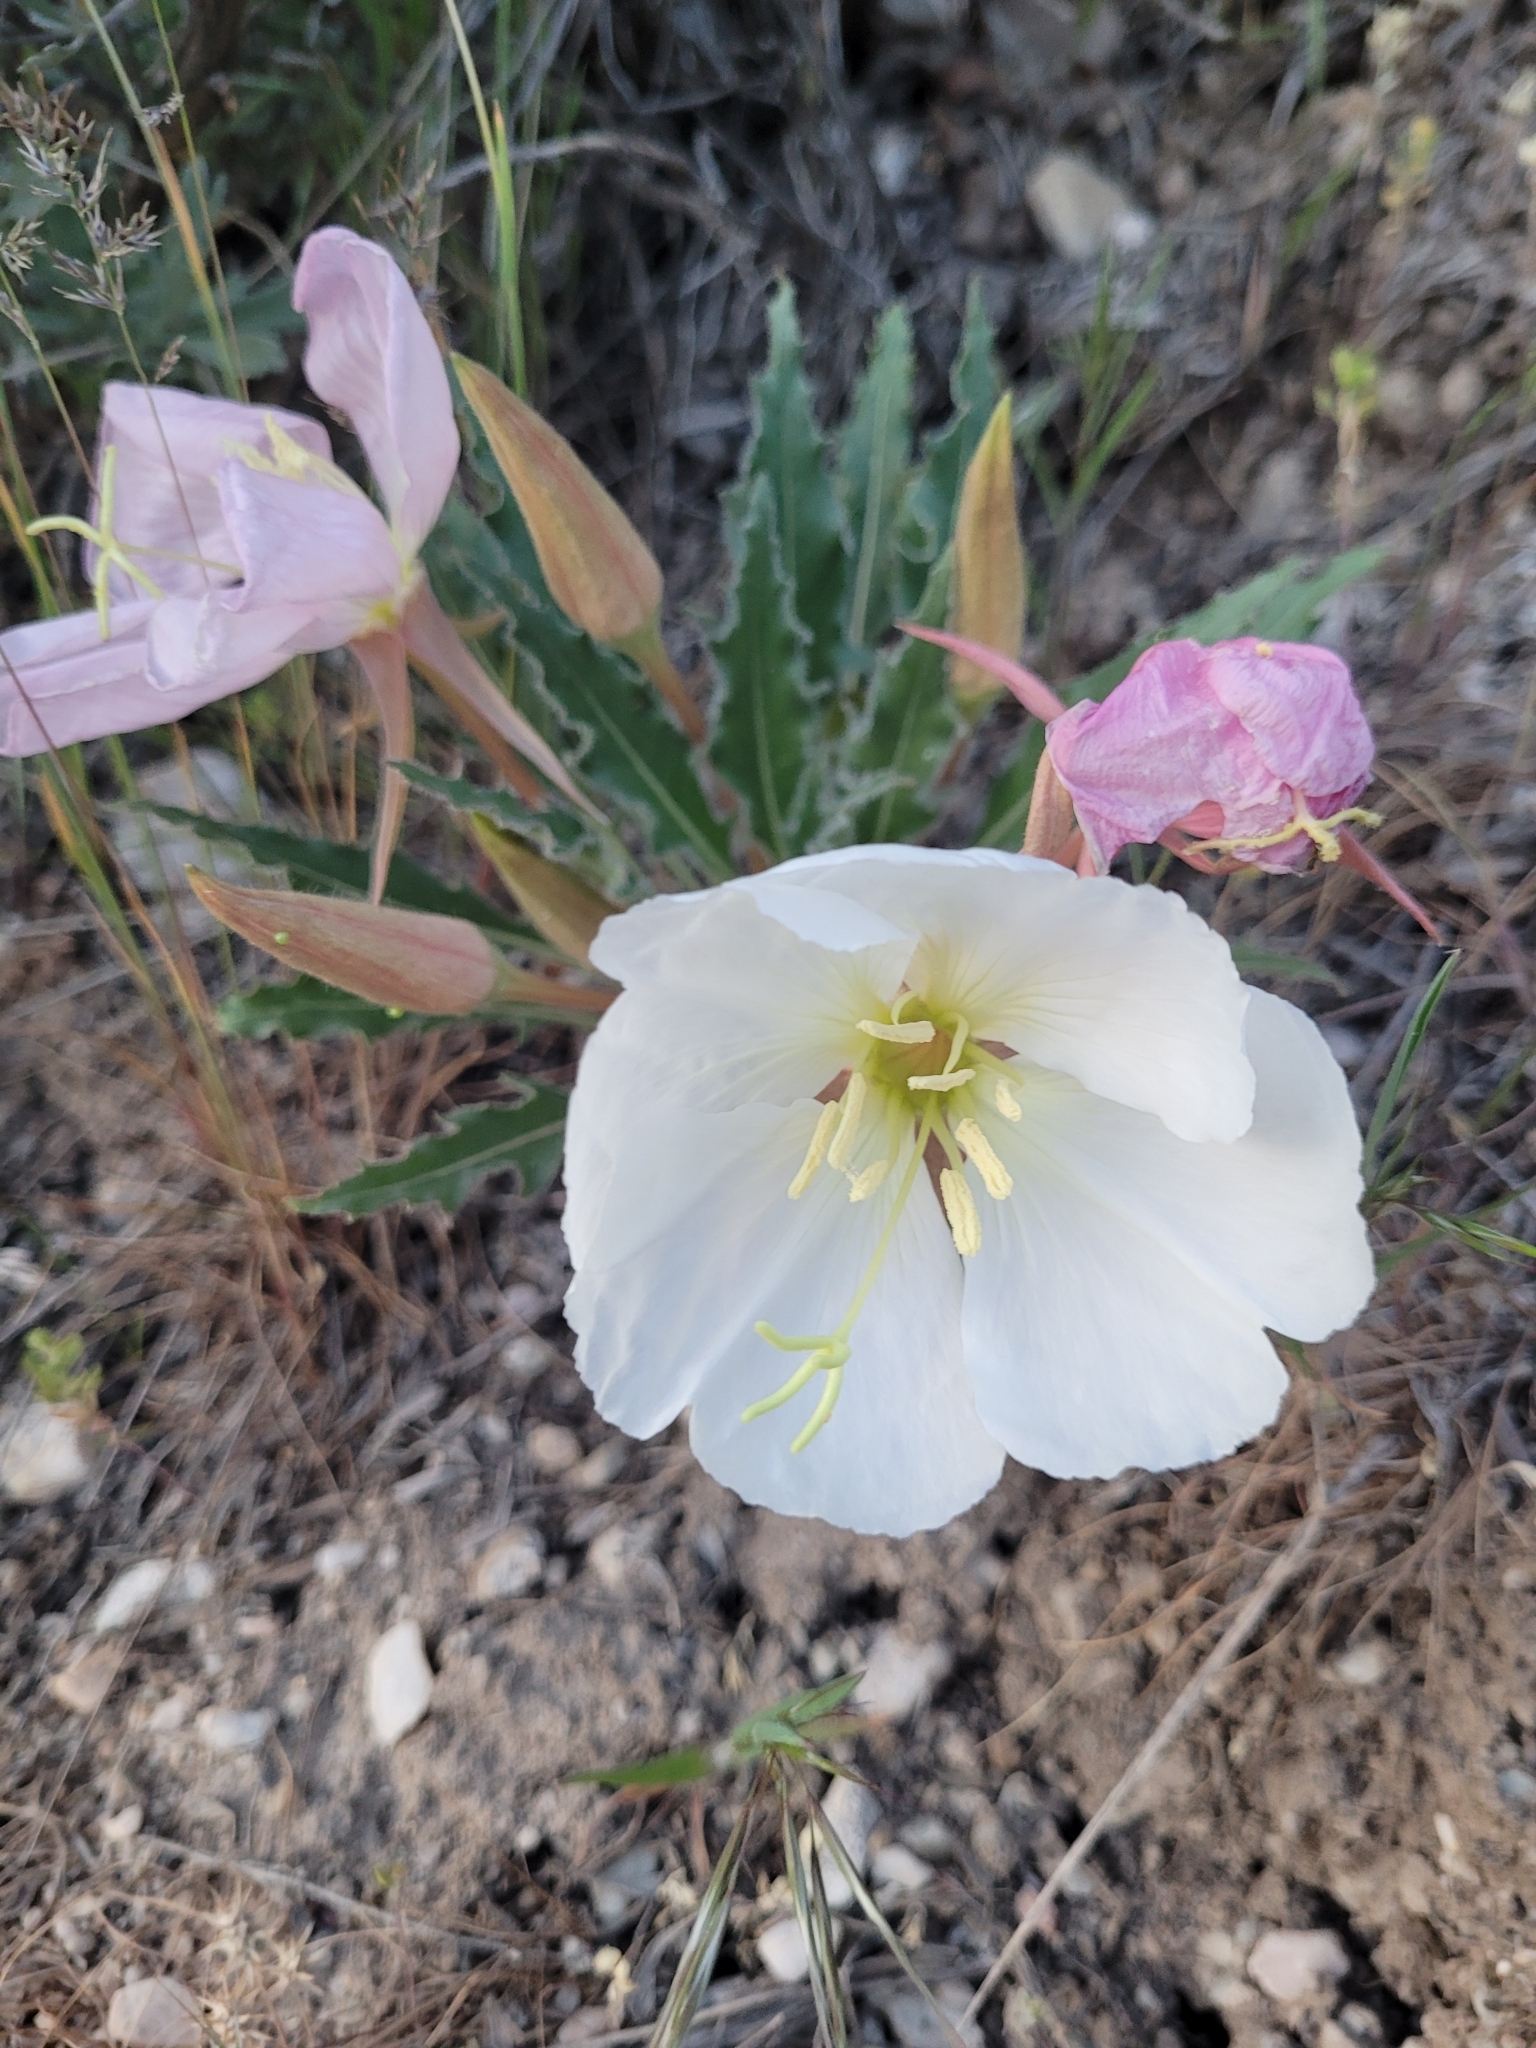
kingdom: Plantae
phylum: Tracheophyta
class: Magnoliopsida
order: Myrtales
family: Onagraceae
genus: Oenothera
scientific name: Oenothera cespitosa
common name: Tufted evening-primrose
